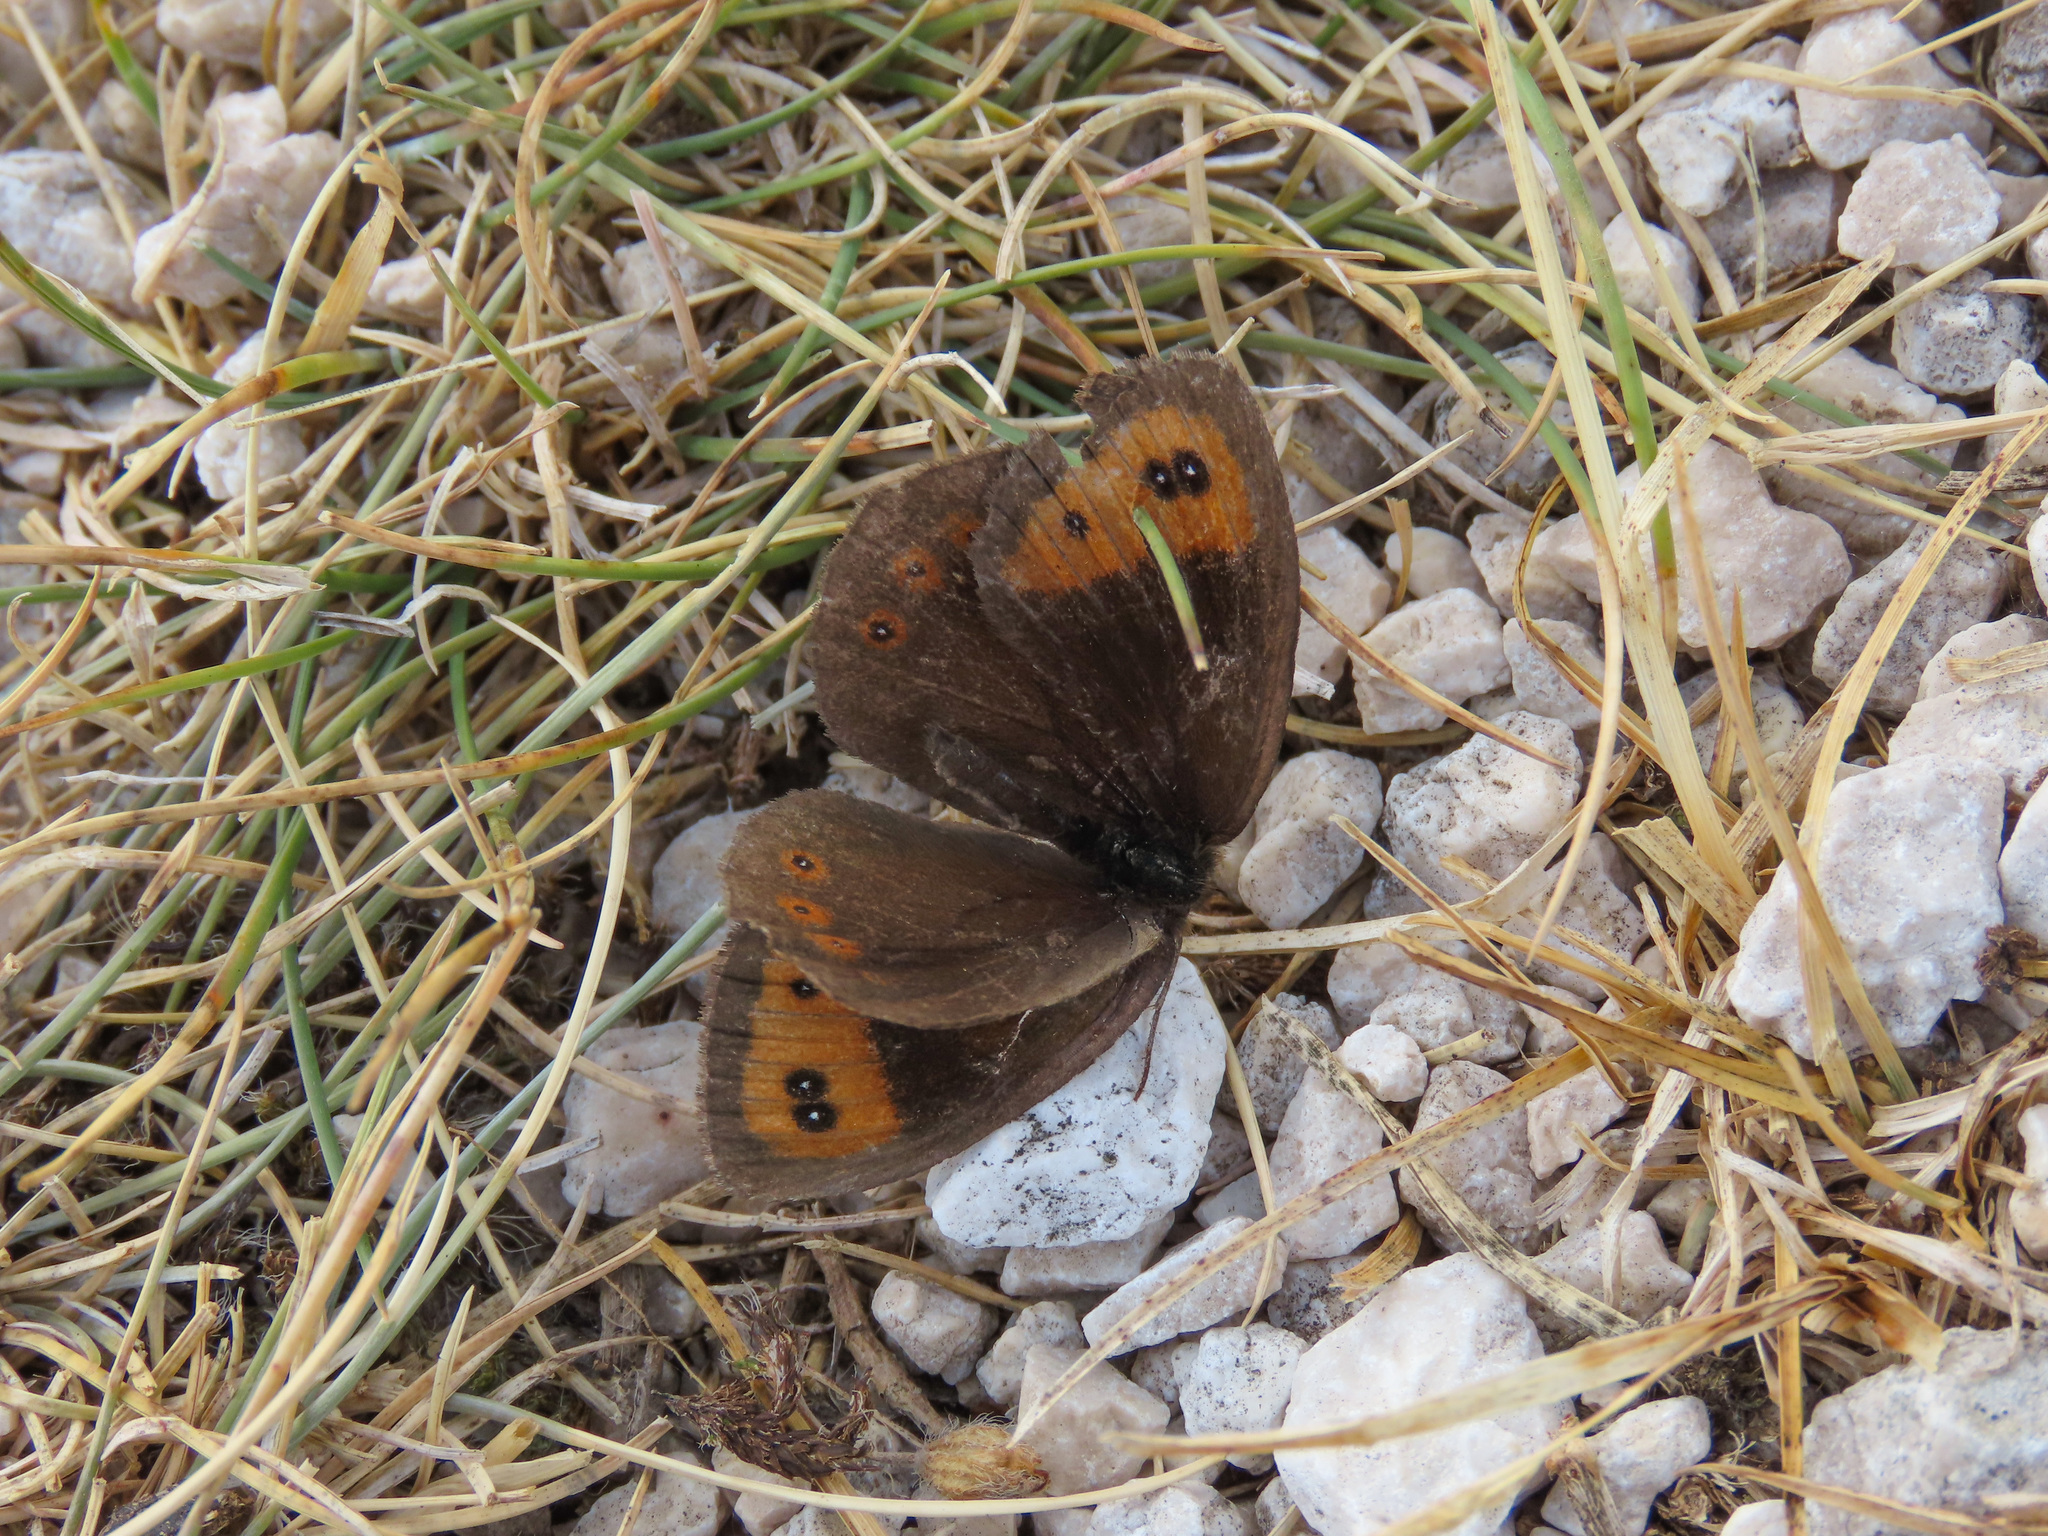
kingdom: Animalia
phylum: Arthropoda
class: Insecta
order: Lepidoptera
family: Nymphalidae
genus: Erebia
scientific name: Erebia neoridas
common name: Autumn ringlet
